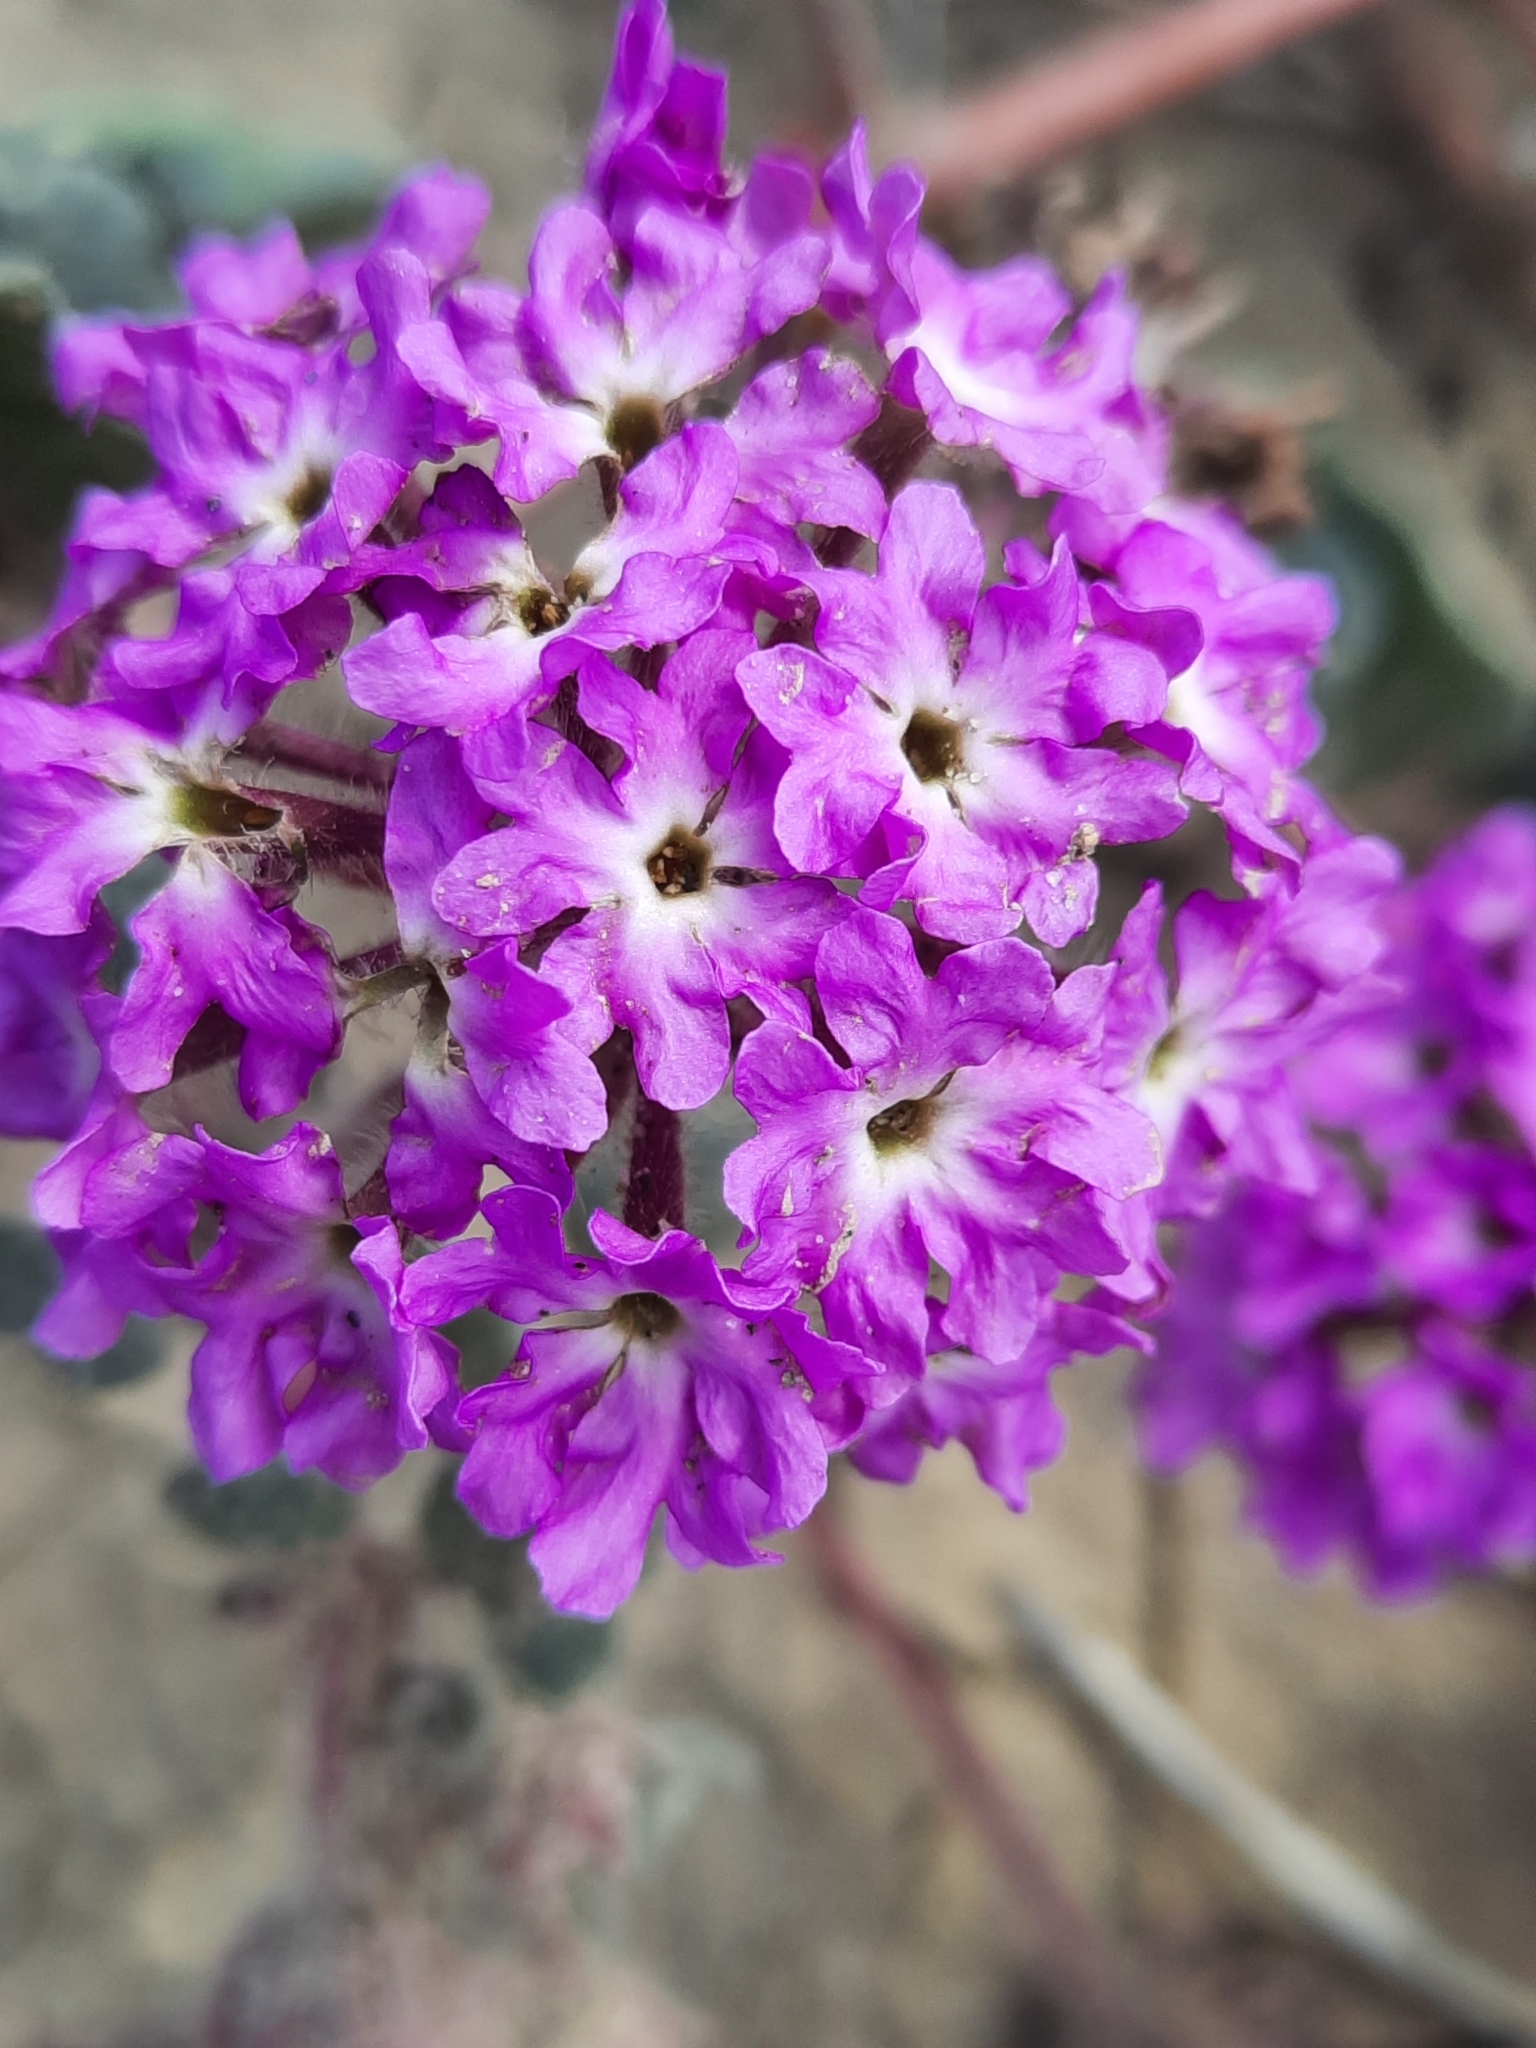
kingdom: Plantae
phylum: Tracheophyta
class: Magnoliopsida
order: Caryophyllales
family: Nyctaginaceae
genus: Abronia
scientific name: Abronia villosa
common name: Desert sand-verbena
